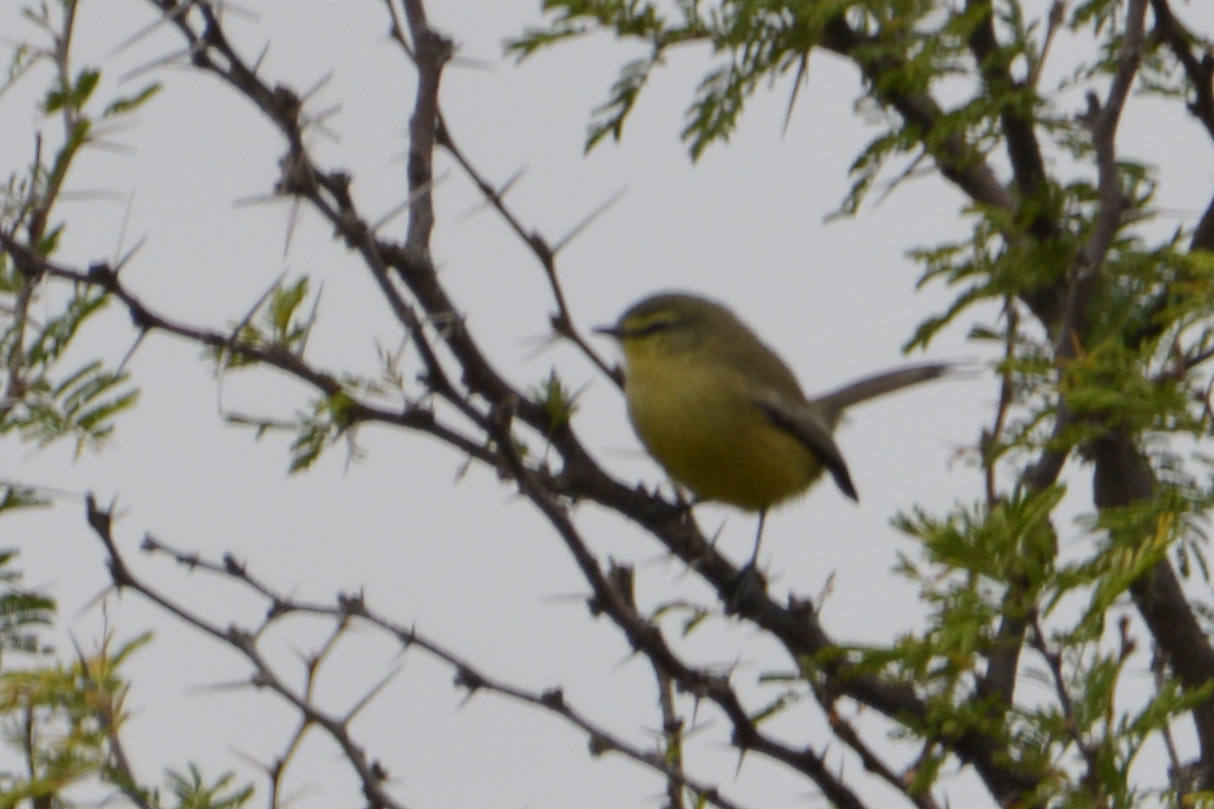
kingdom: Animalia
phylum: Chordata
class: Aves
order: Passeriformes
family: Tyrannidae
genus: Stigmatura
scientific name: Stigmatura budytoides
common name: Greater wagtail-tyrant
